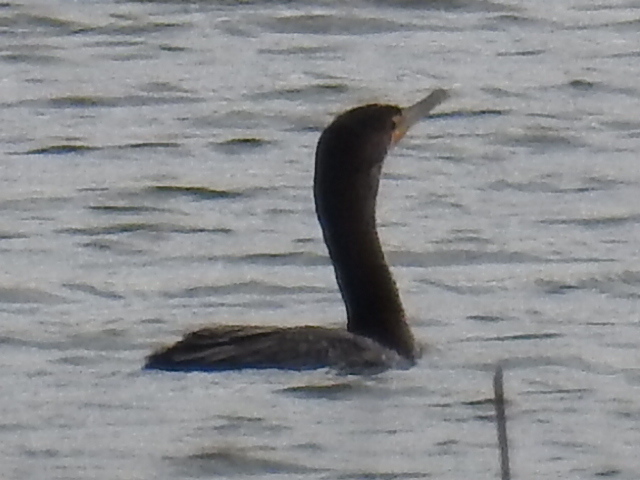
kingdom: Animalia
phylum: Chordata
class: Aves
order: Suliformes
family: Phalacrocoracidae
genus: Phalacrocorax
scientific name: Phalacrocorax auritus
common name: Double-crested cormorant
